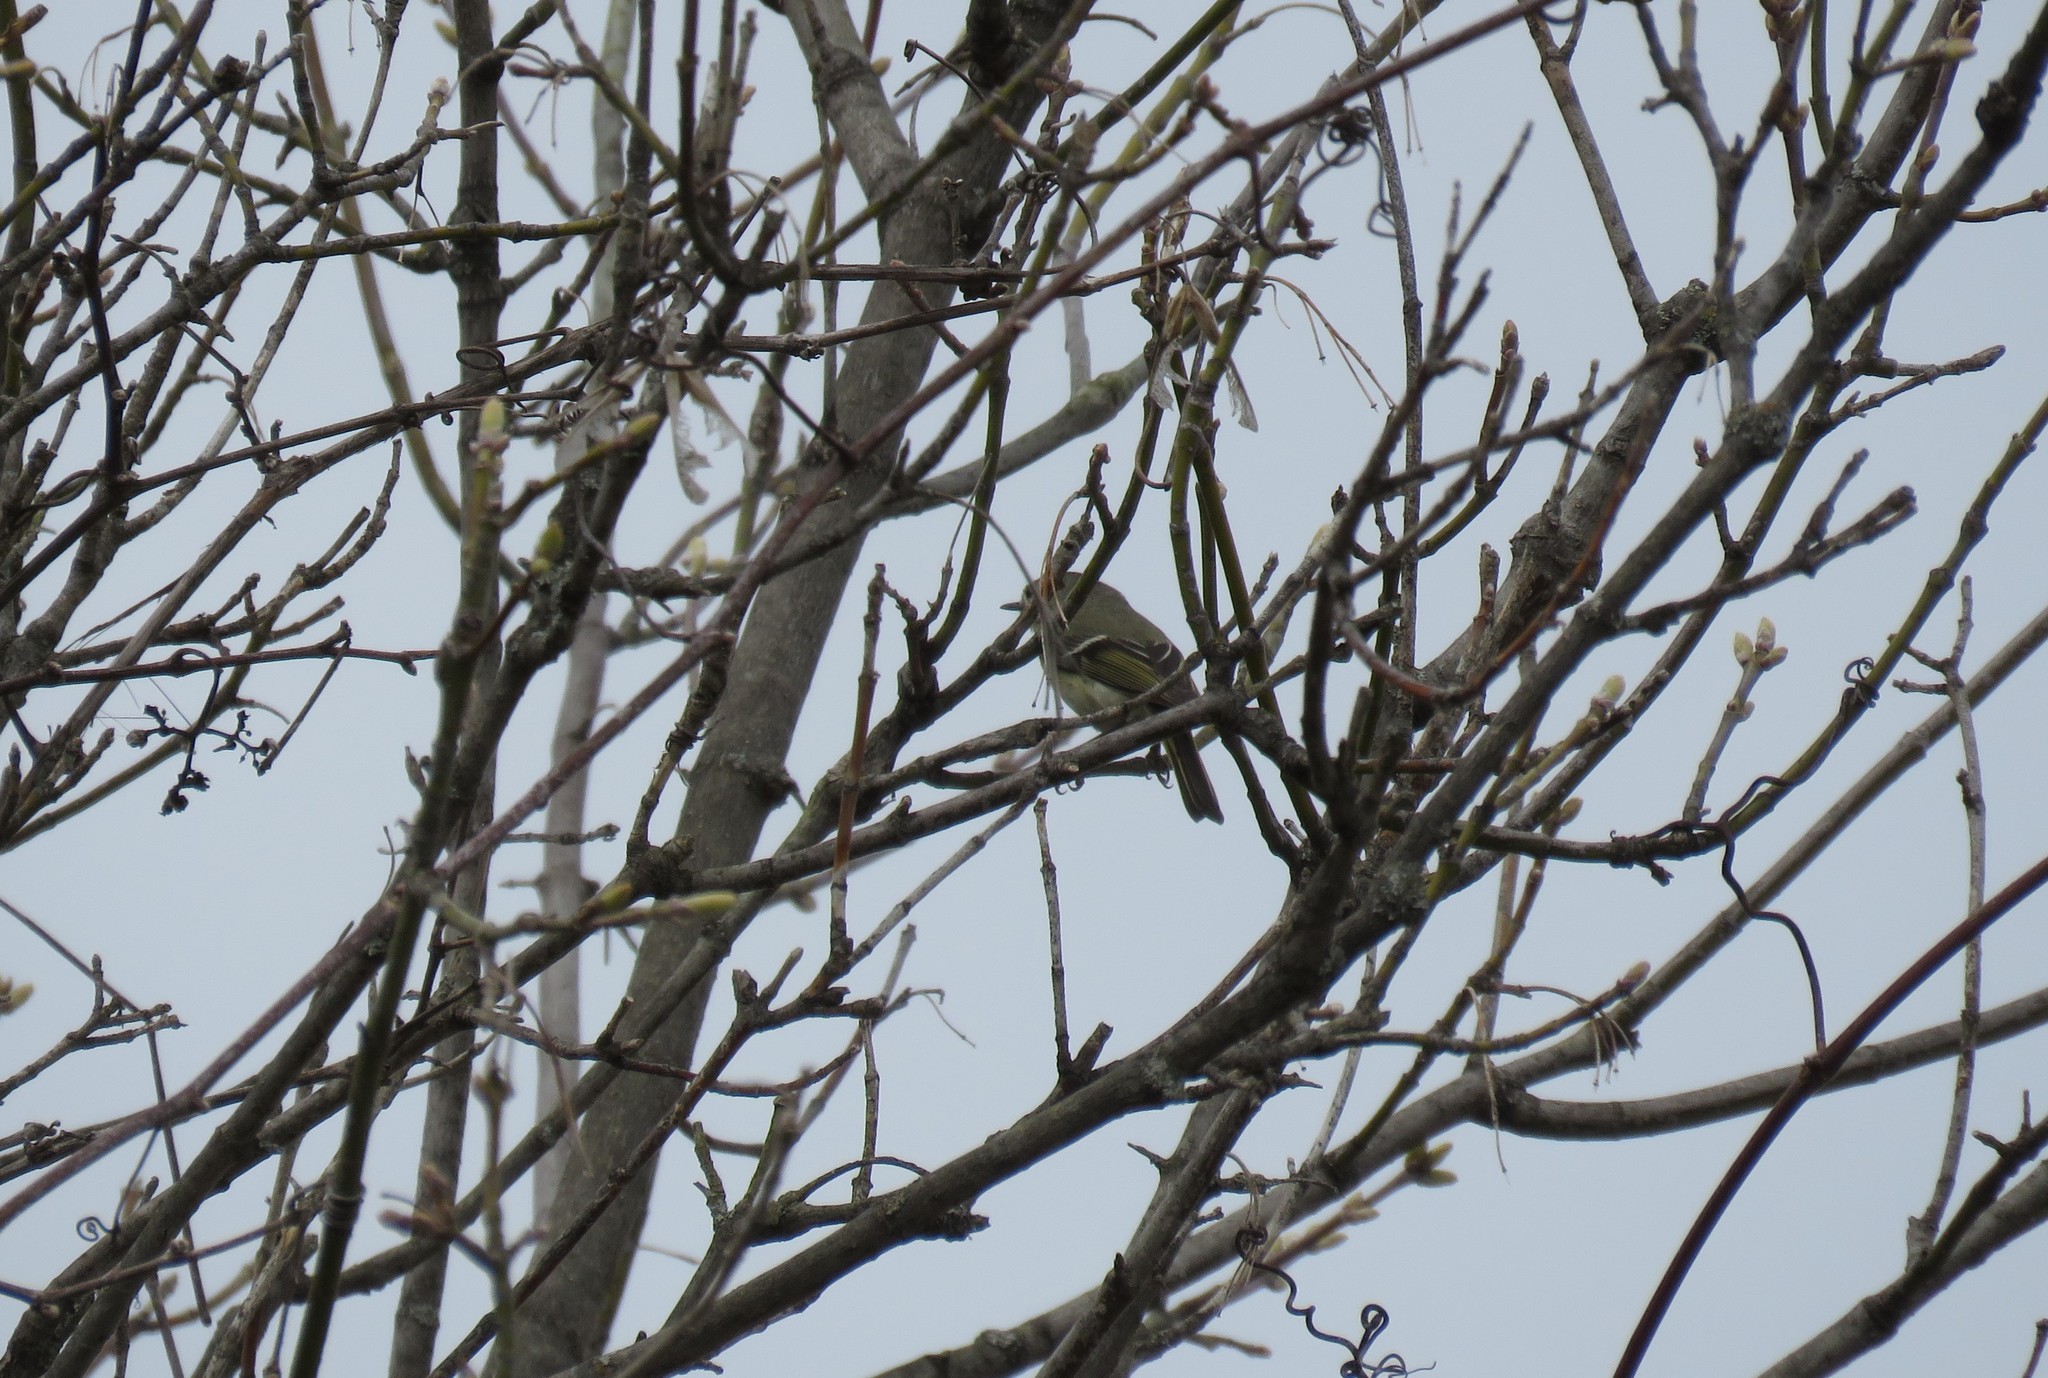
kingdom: Animalia
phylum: Chordata
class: Aves
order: Passeriformes
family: Regulidae
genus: Regulus
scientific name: Regulus calendula
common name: Ruby-crowned kinglet
